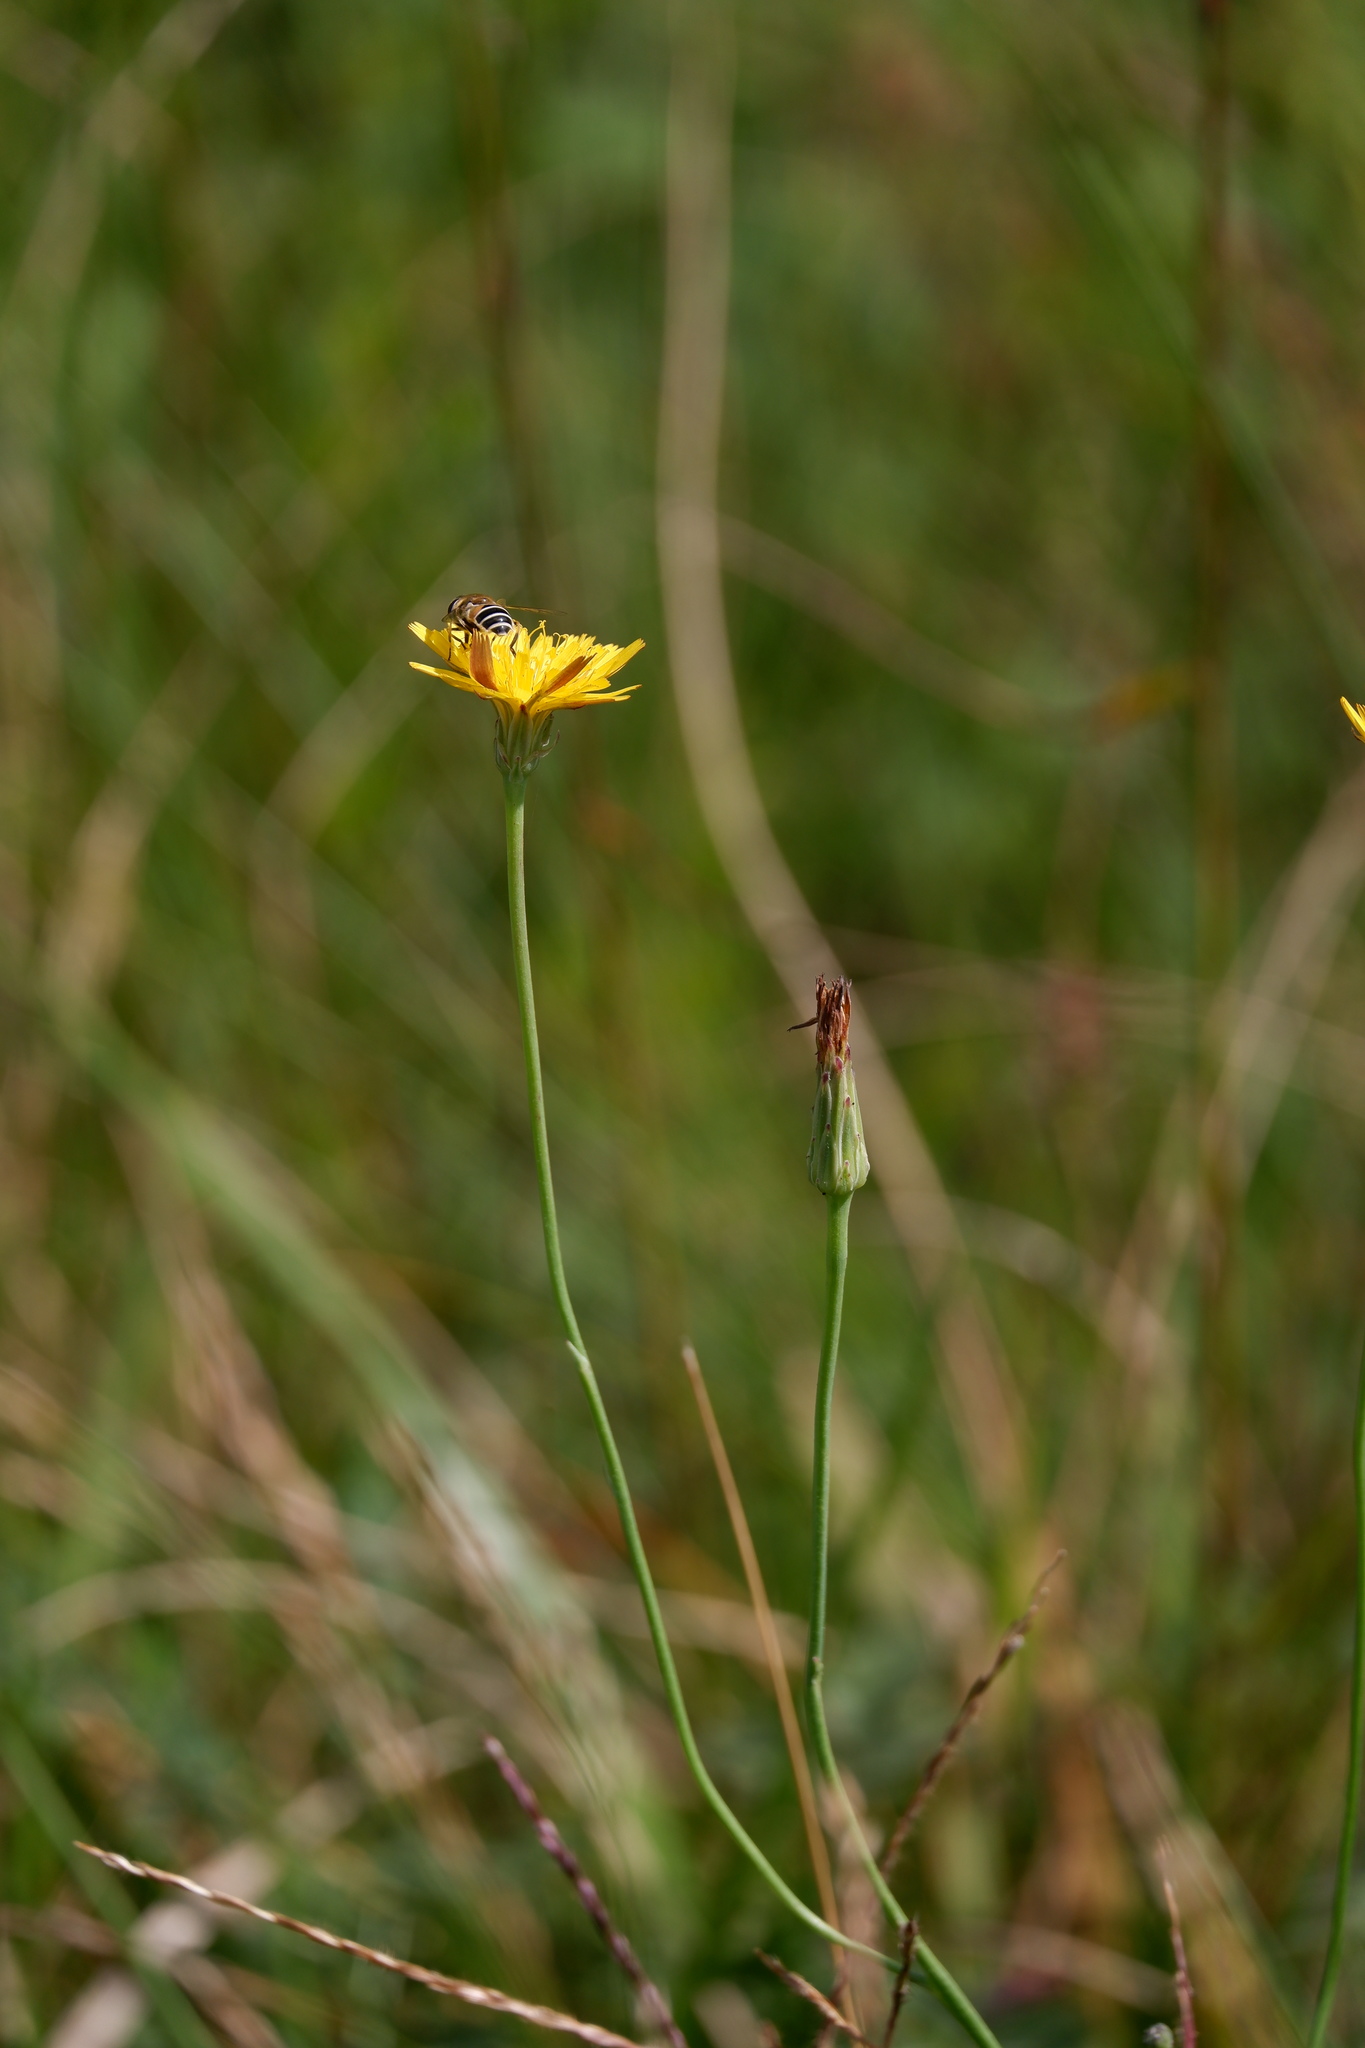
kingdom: Animalia
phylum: Arthropoda
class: Insecta
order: Diptera
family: Syrphidae
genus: Eristalis
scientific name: Eristalis arbustorum
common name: Hover fly
